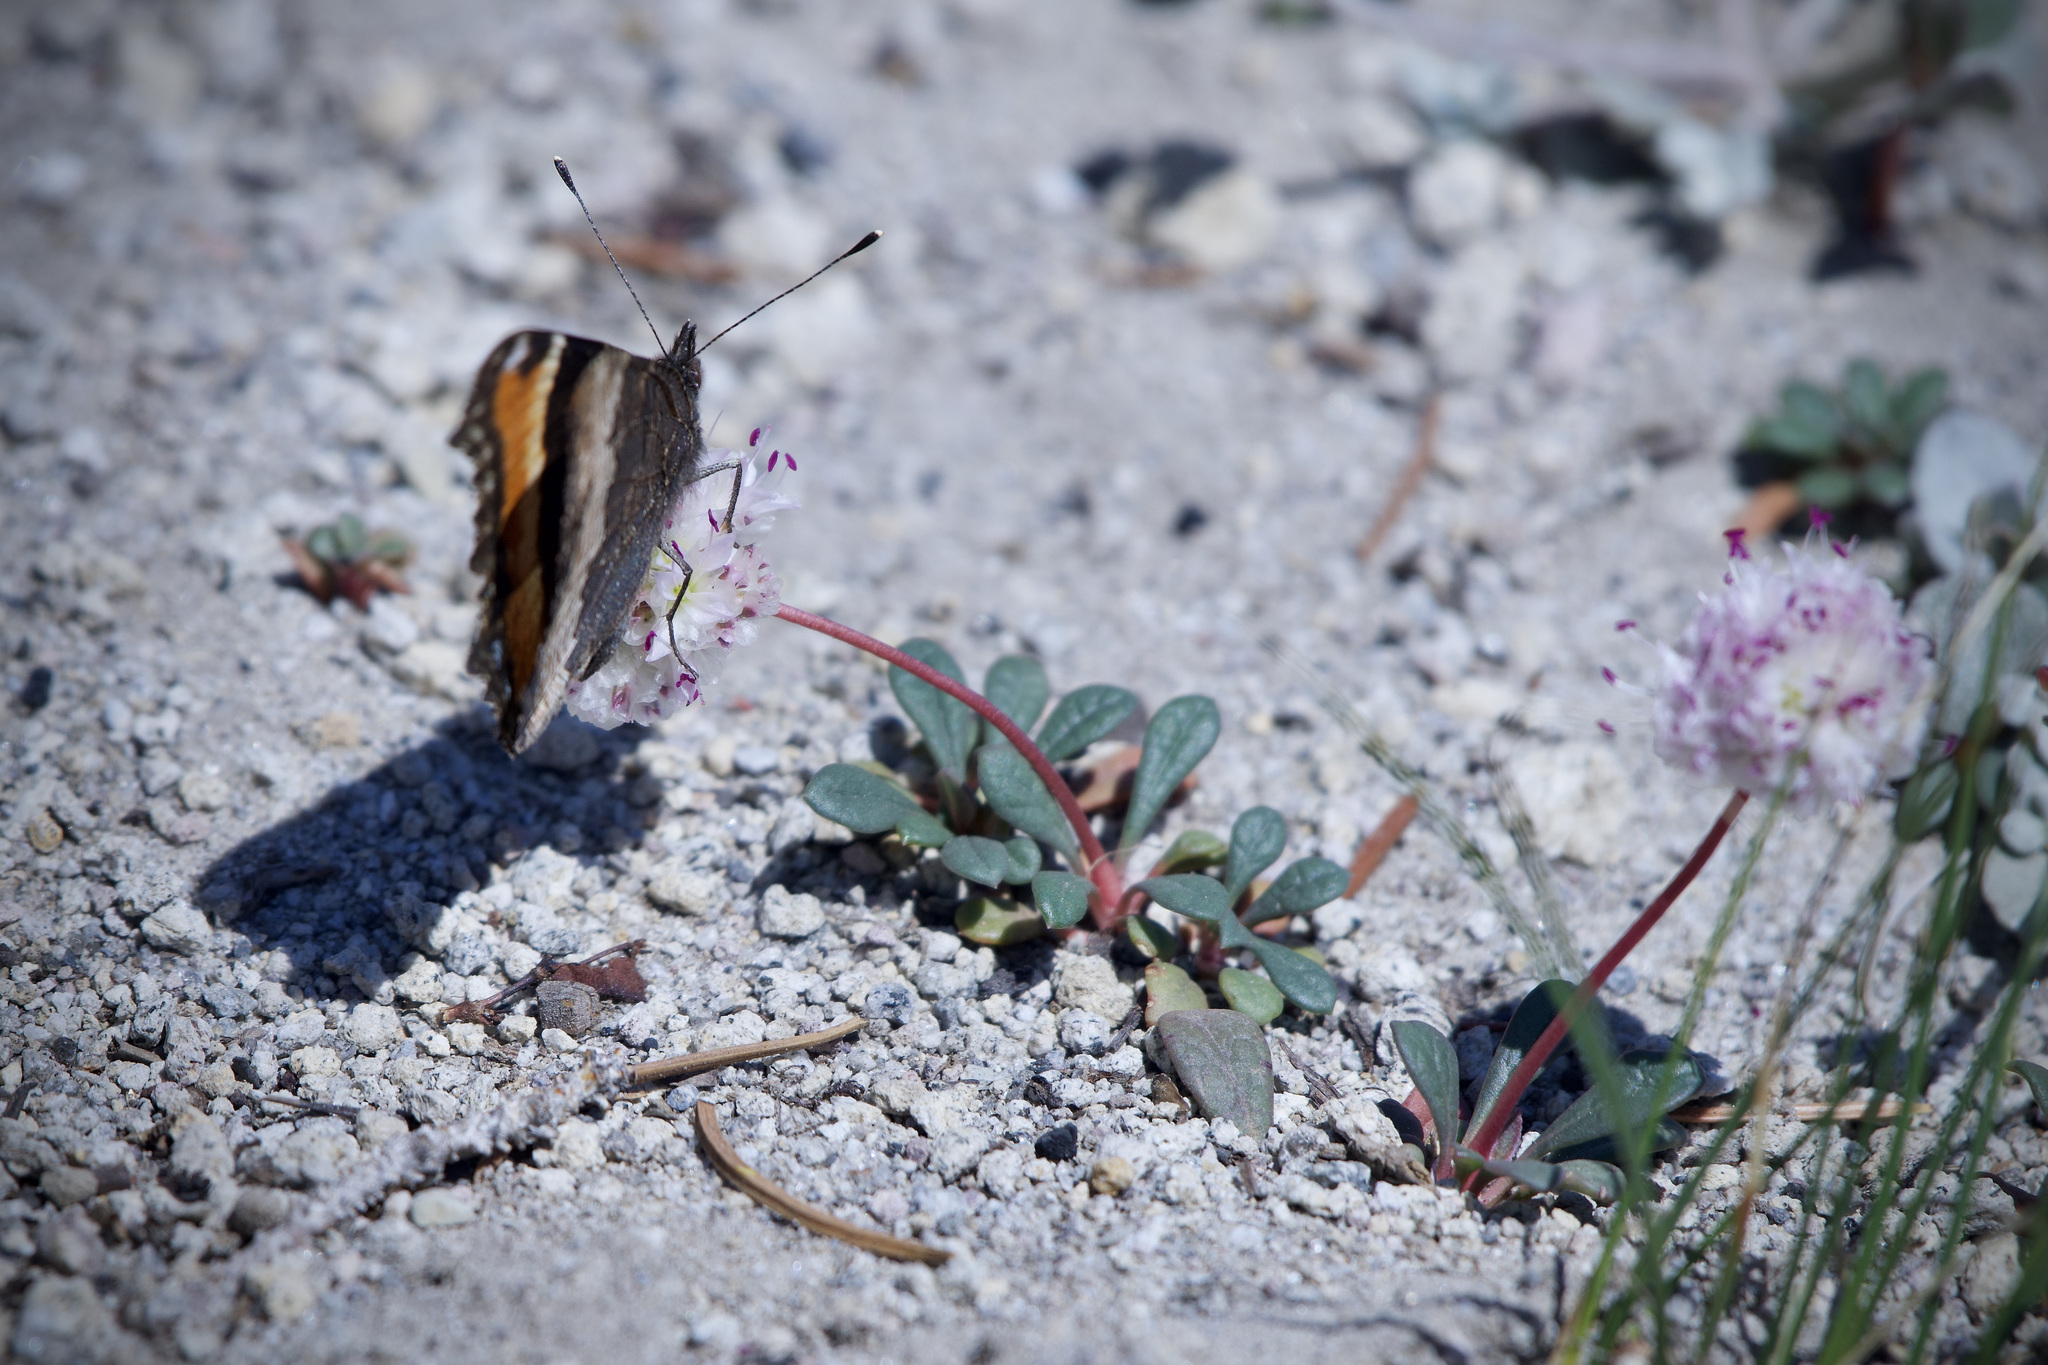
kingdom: Animalia
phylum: Arthropoda
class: Insecta
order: Lepidoptera
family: Nymphalidae
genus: Aglais
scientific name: Aglais milberti
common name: Milbert's tortoiseshell
